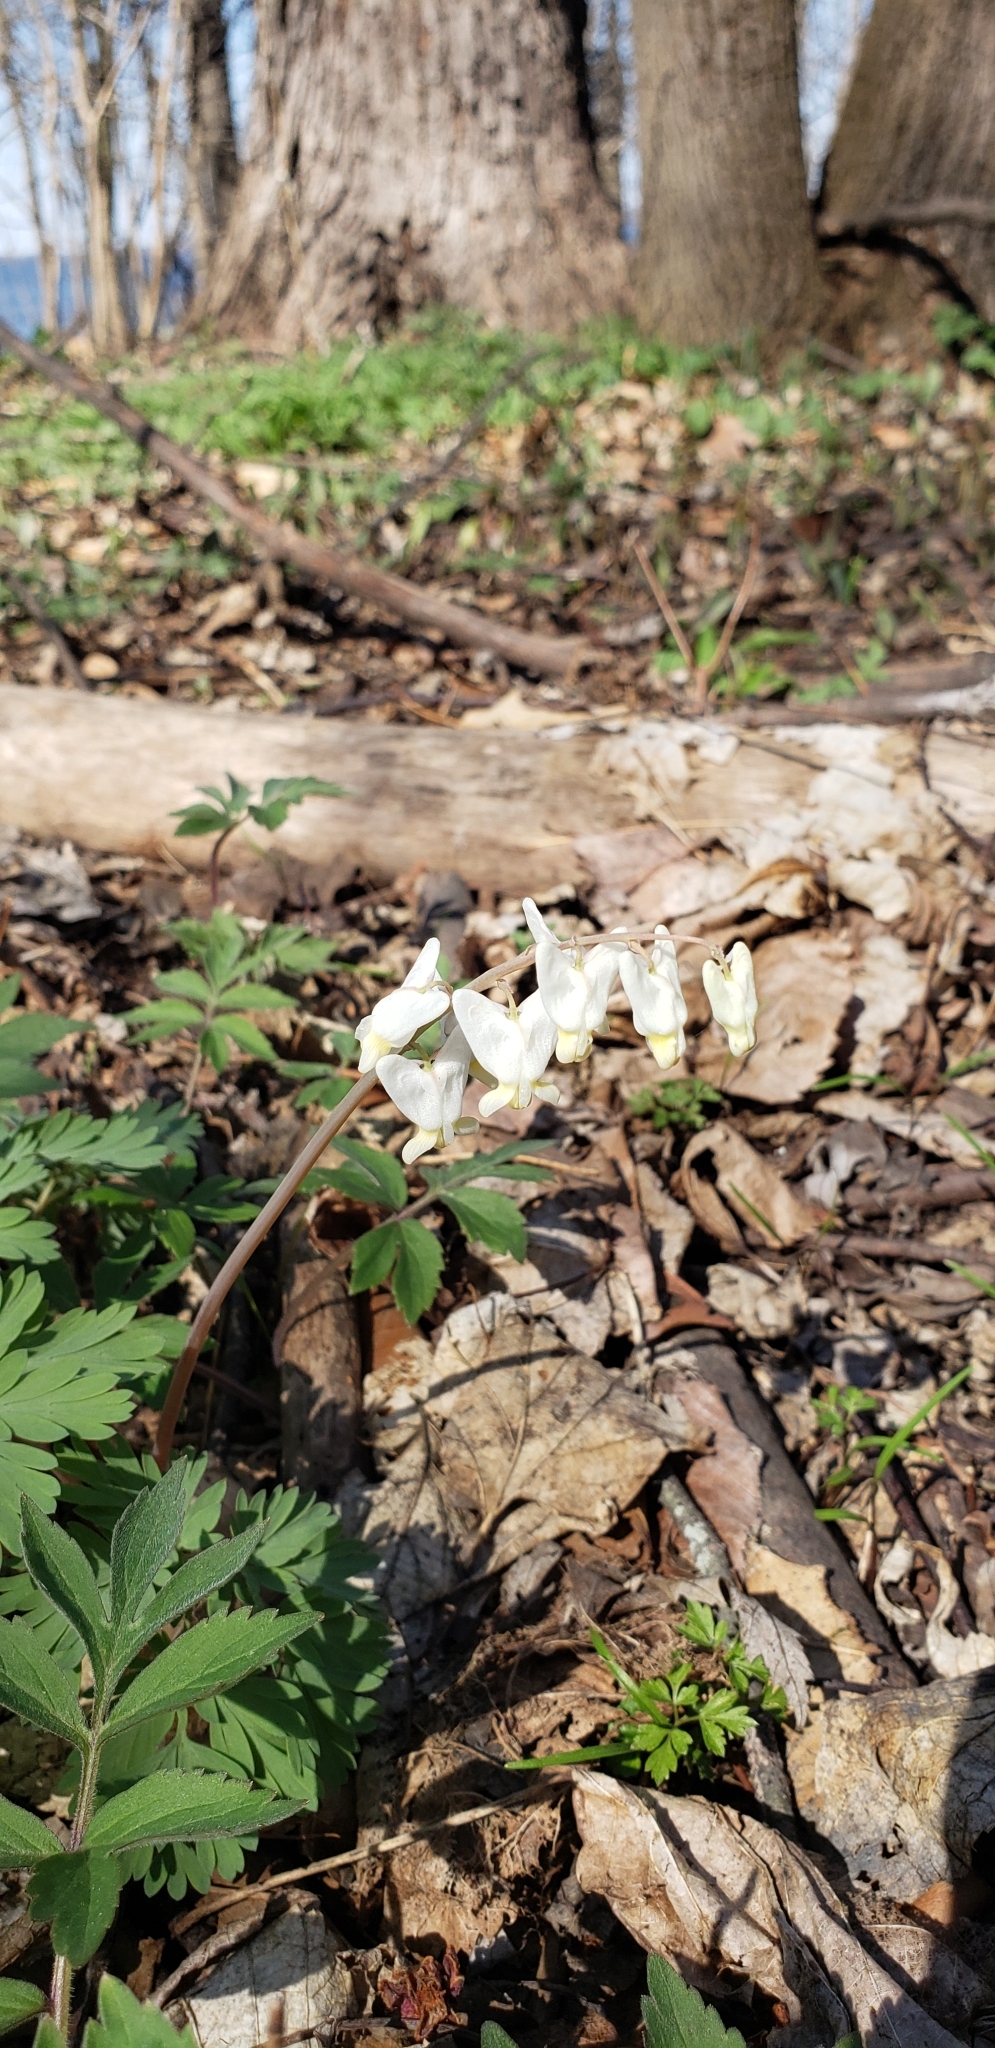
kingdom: Plantae
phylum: Tracheophyta
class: Magnoliopsida
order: Ranunculales
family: Papaveraceae
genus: Dicentra
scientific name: Dicentra cucullaria
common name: Dutchman's breeches
